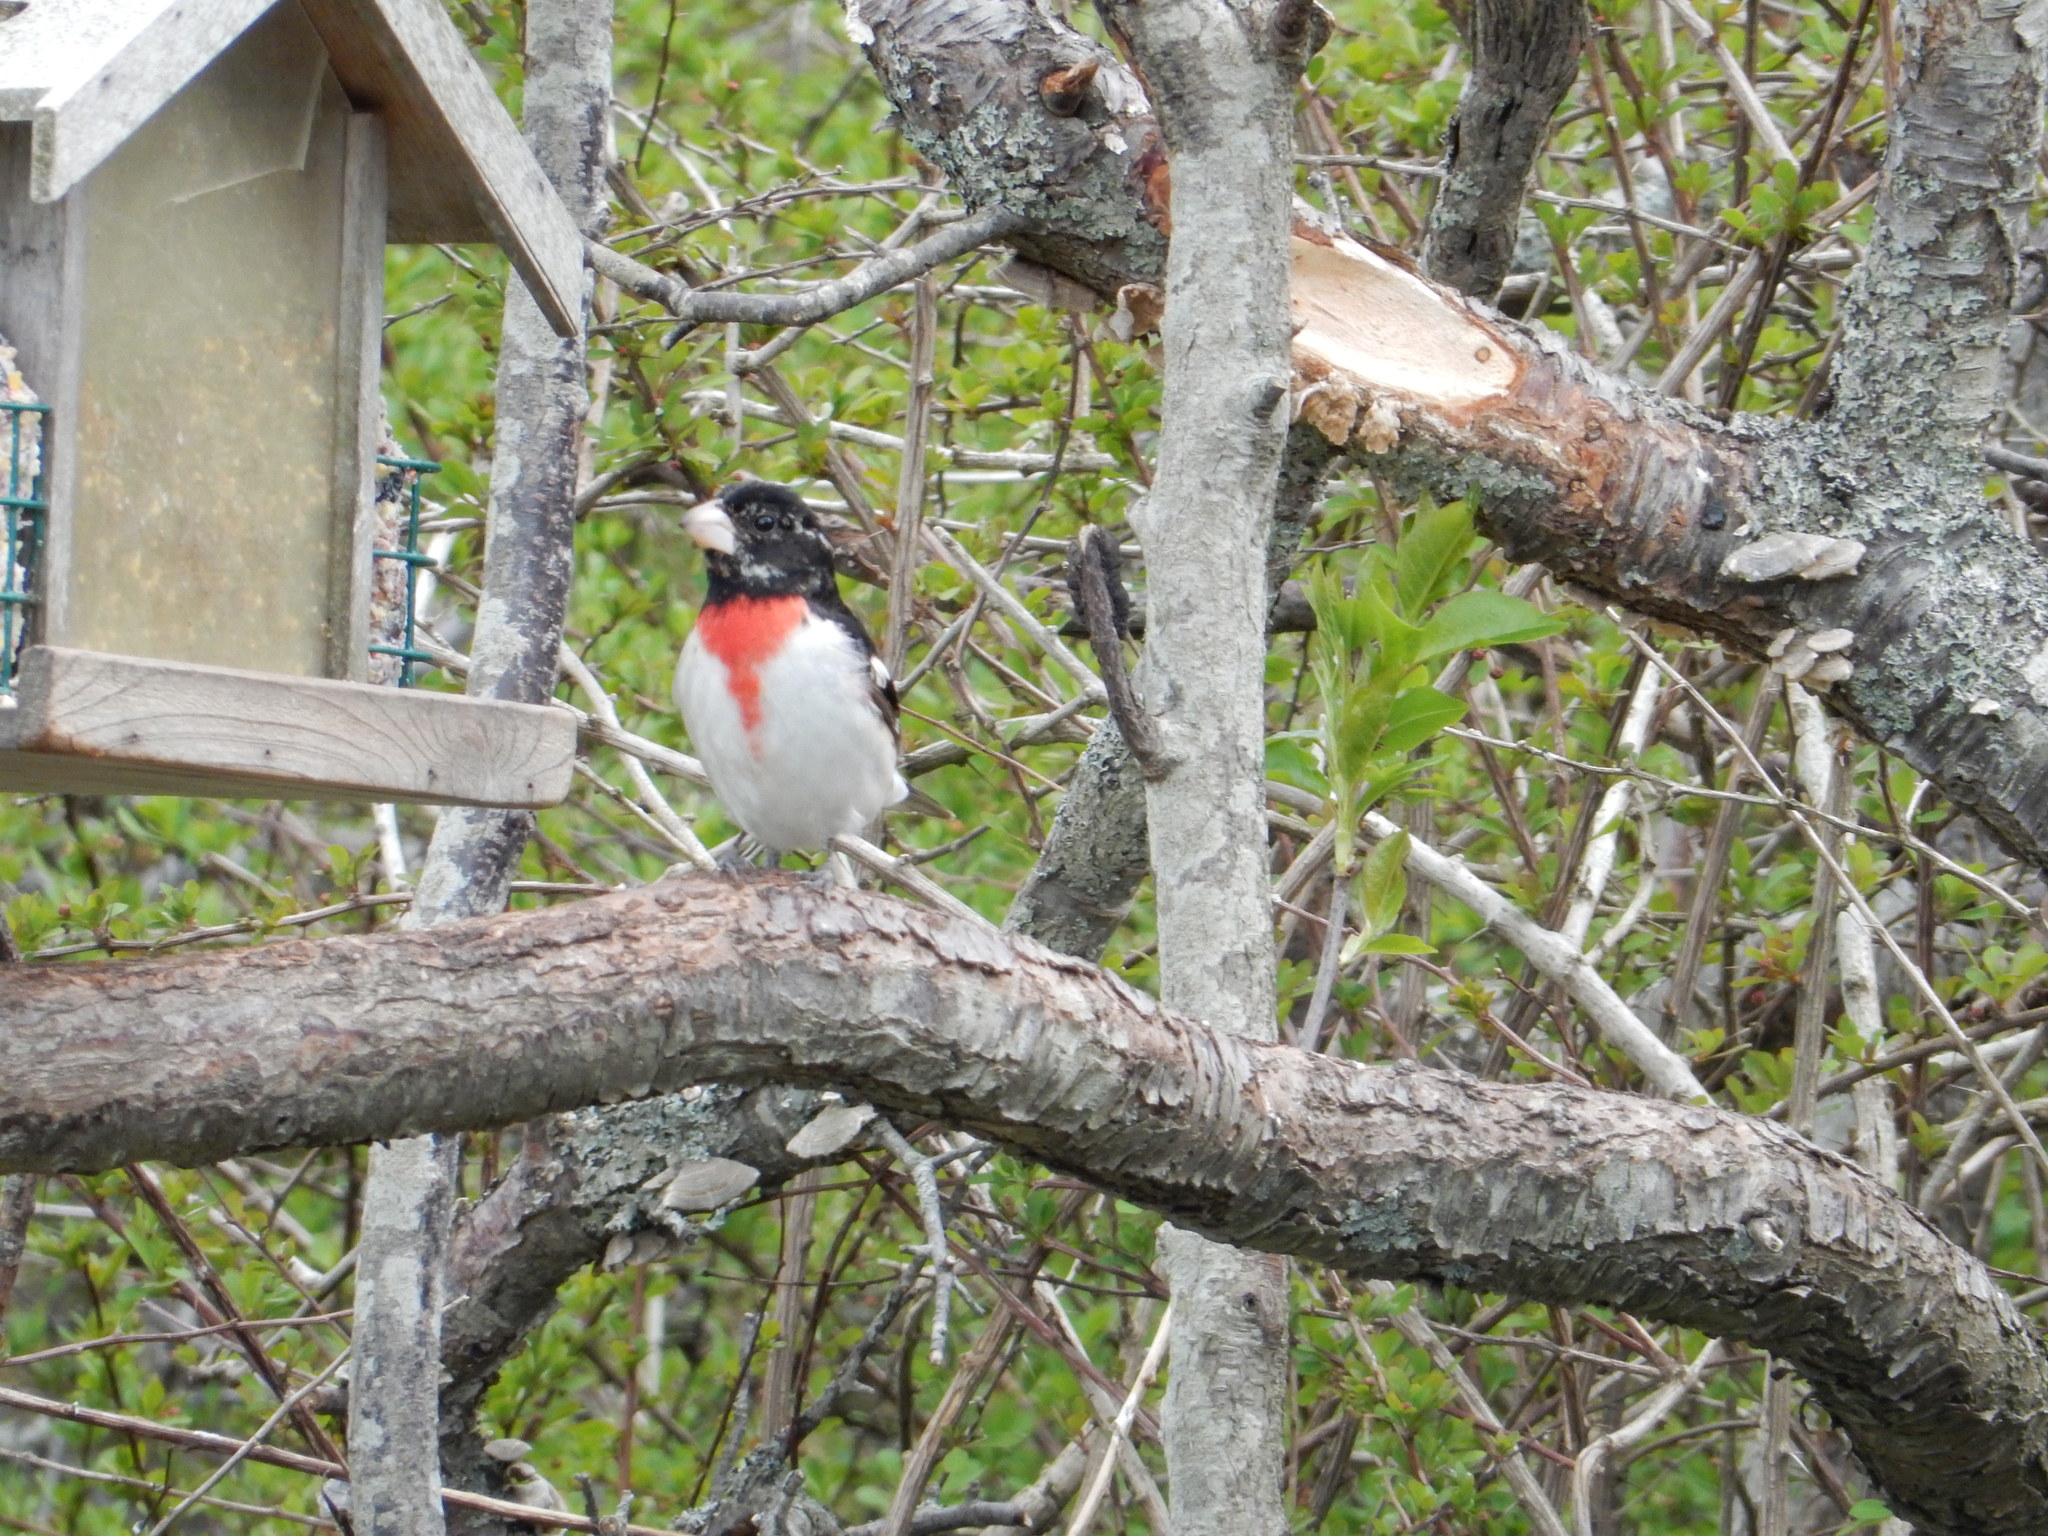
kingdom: Animalia
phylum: Chordata
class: Aves
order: Passeriformes
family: Cardinalidae
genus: Pheucticus
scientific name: Pheucticus ludovicianus
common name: Rose-breasted grosbeak
